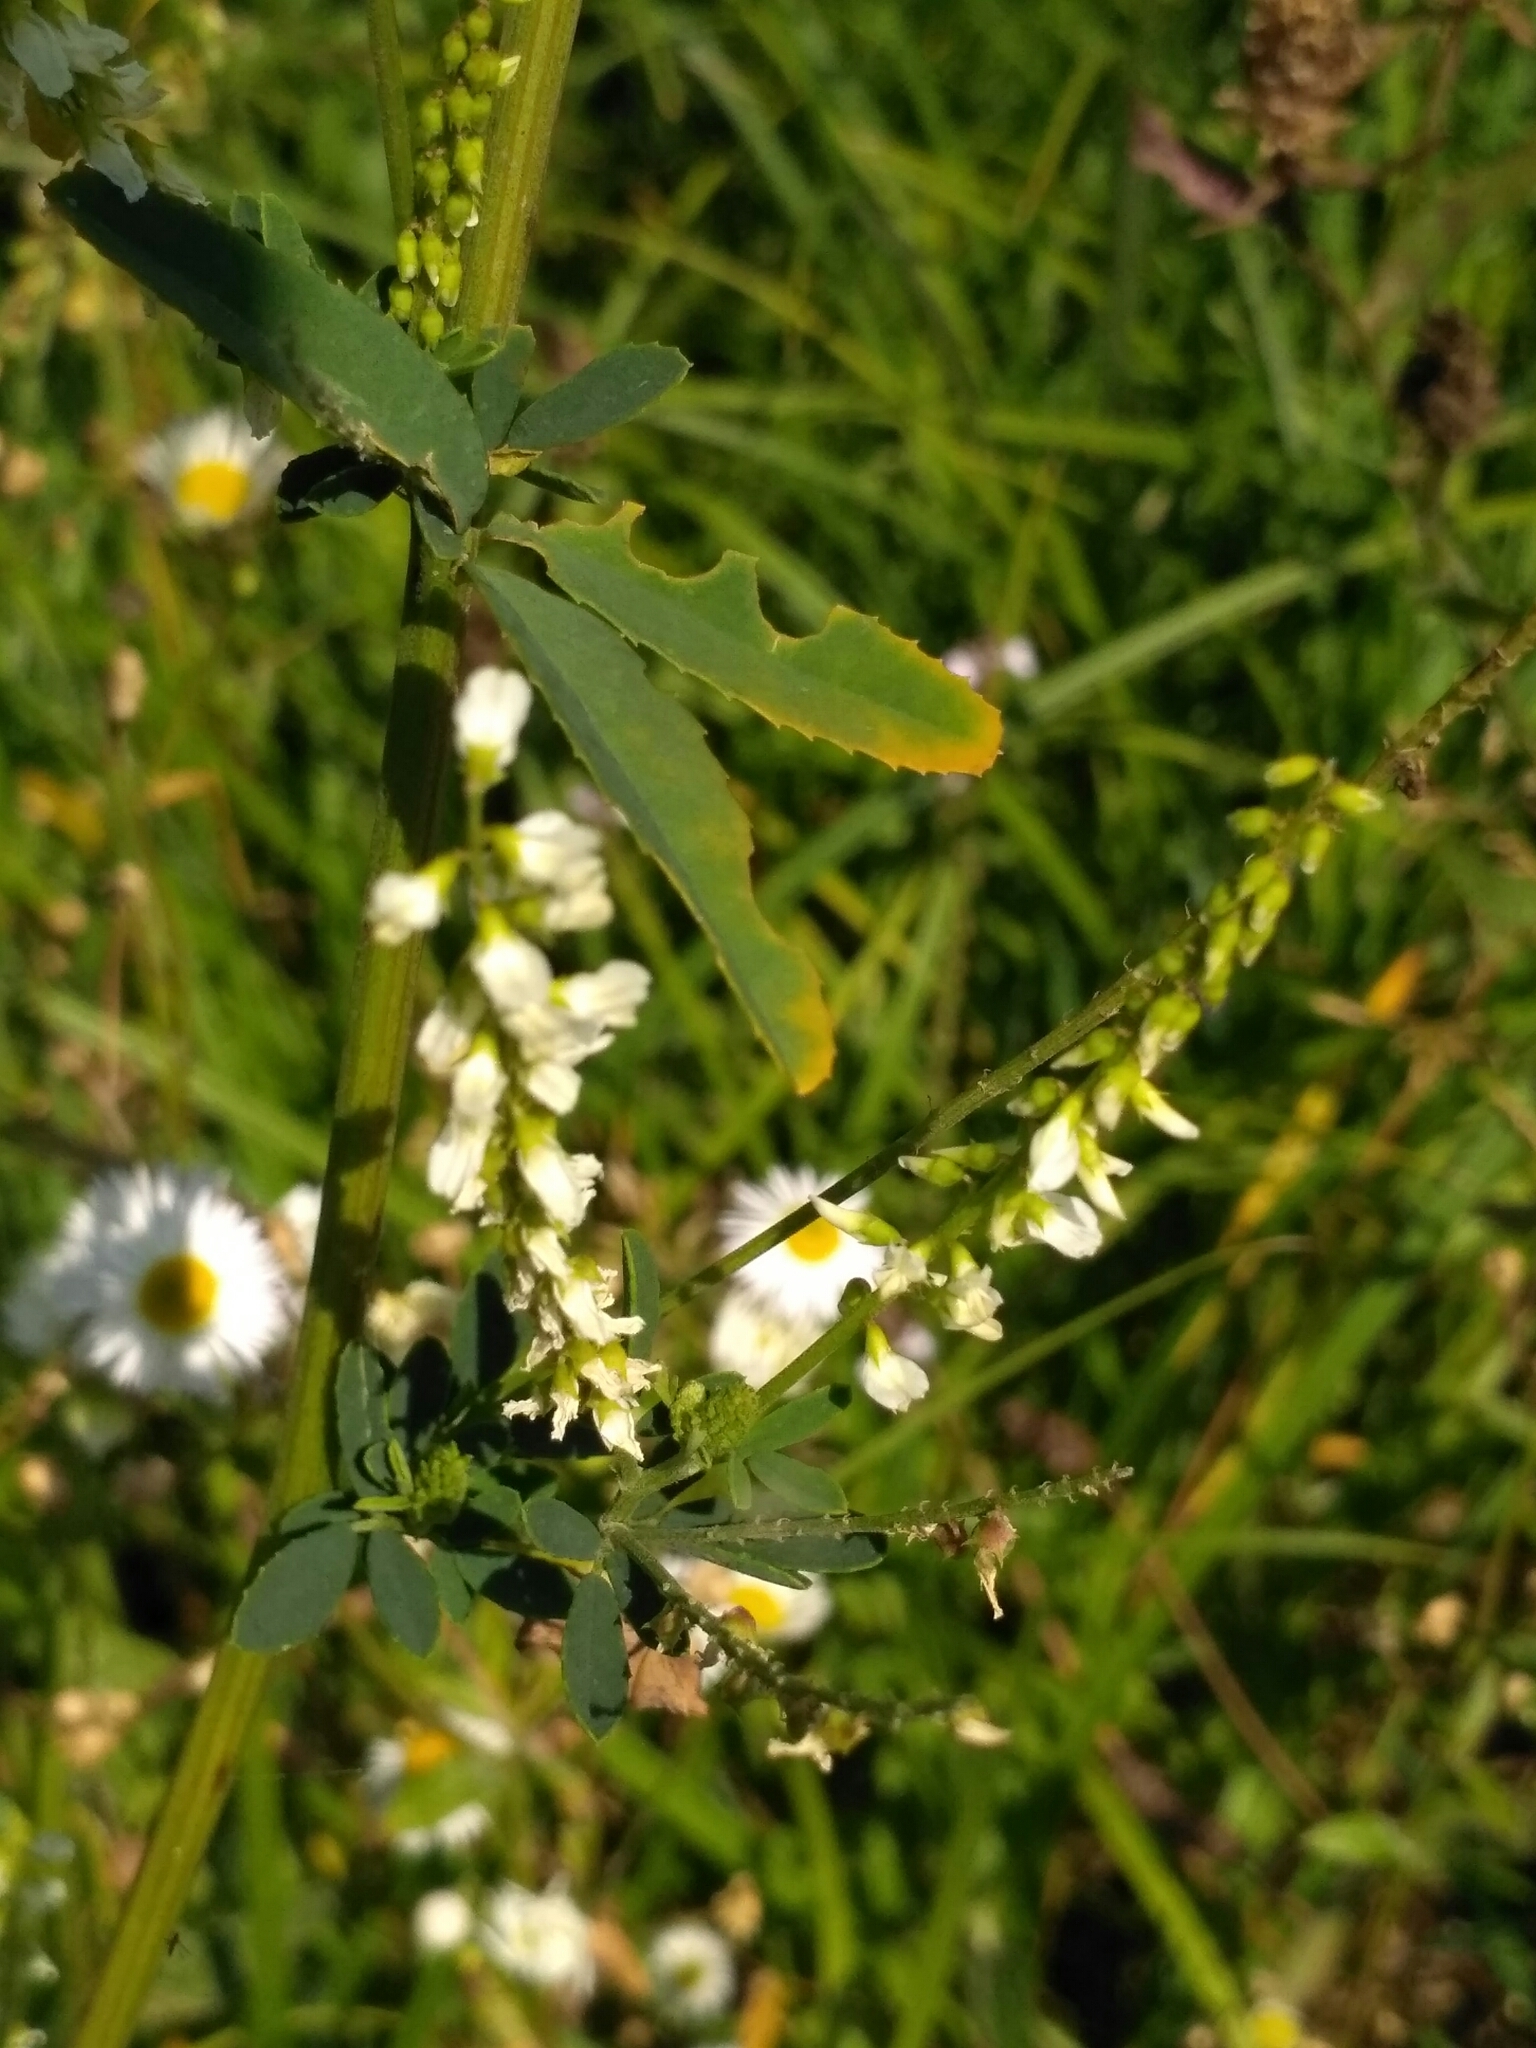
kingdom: Plantae
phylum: Tracheophyta
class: Magnoliopsida
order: Fabales
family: Fabaceae
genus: Melilotus
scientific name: Melilotus albus
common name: White melilot
